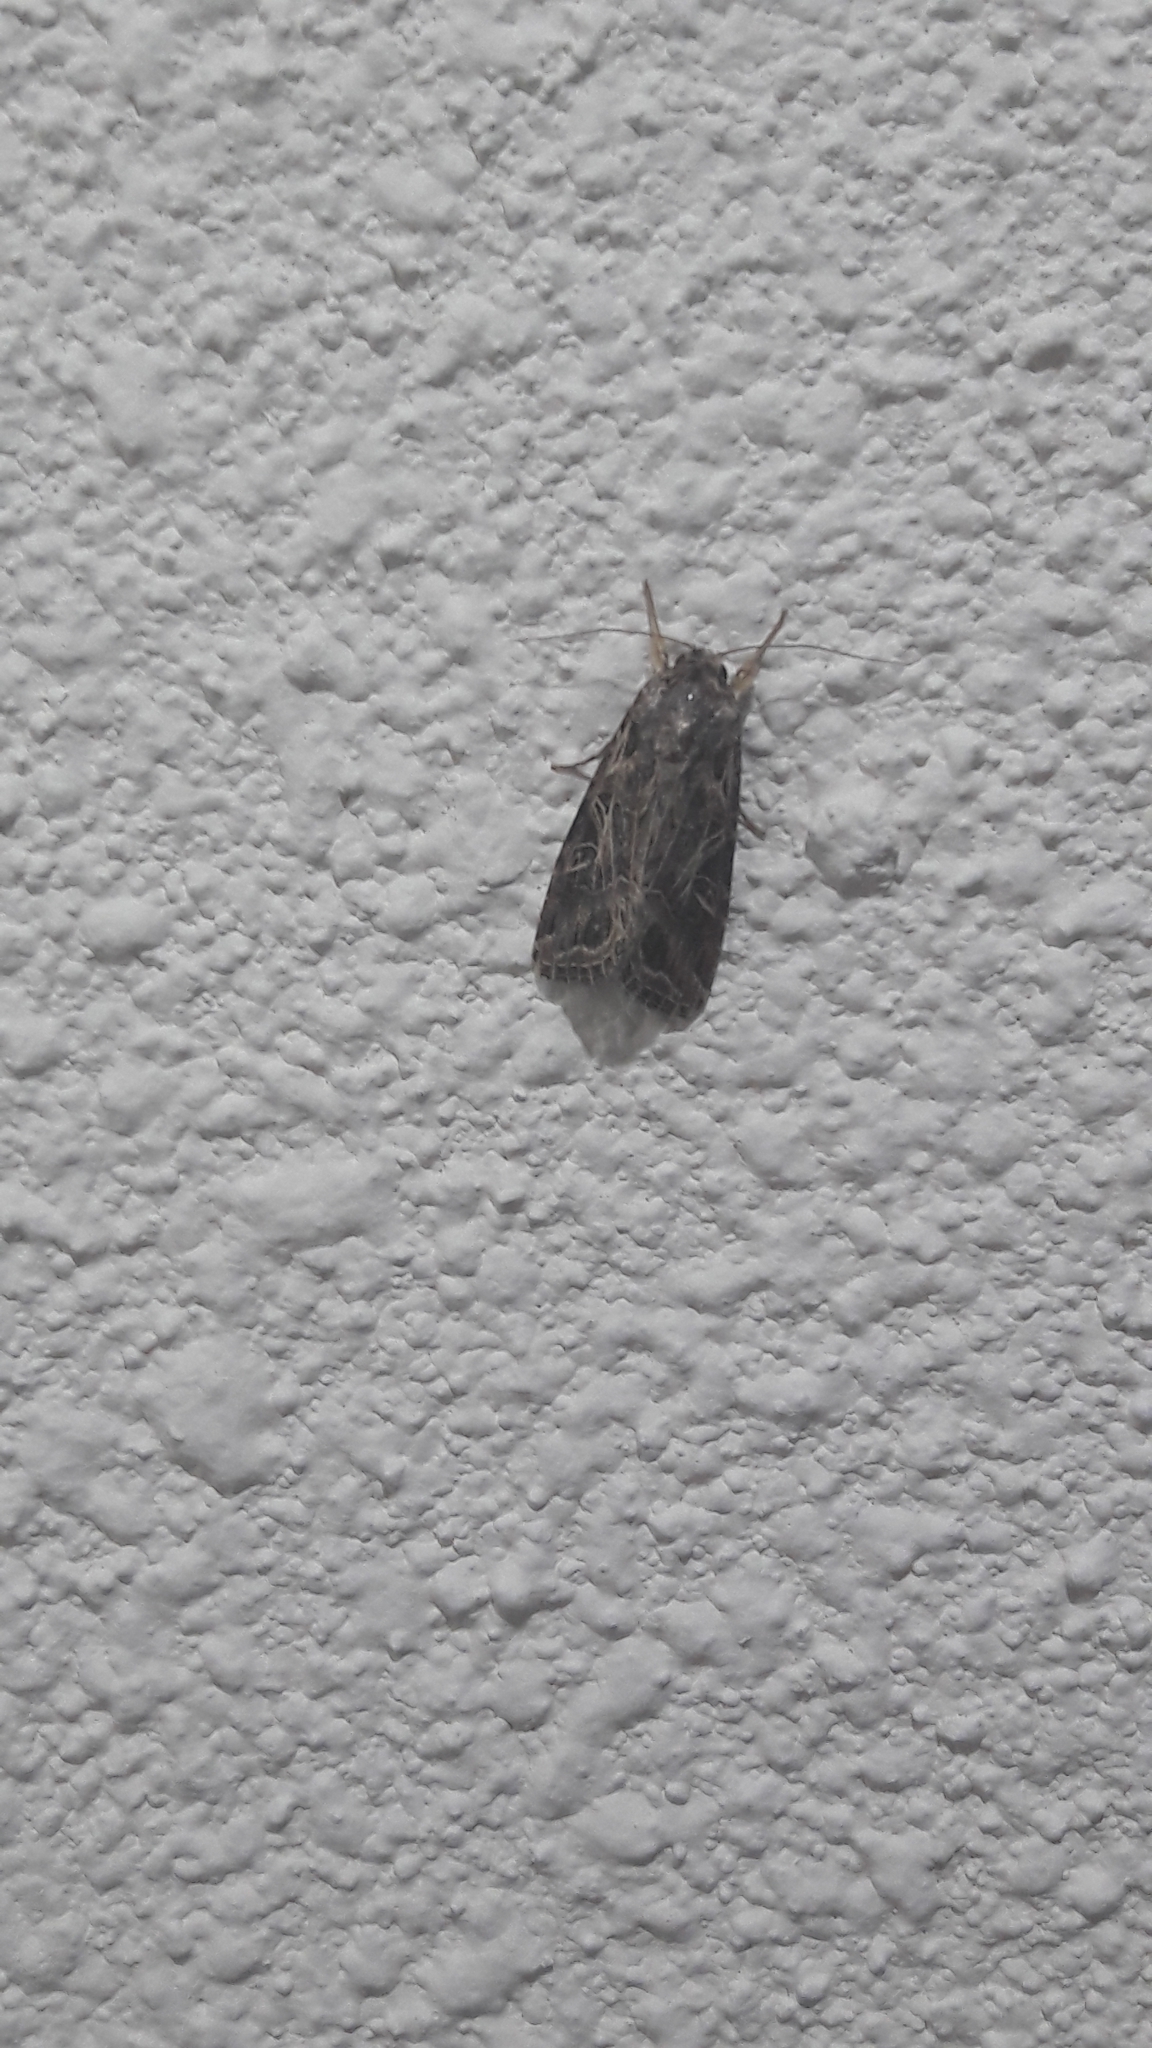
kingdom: Animalia
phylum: Arthropoda
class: Insecta
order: Lepidoptera
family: Noctuidae
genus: Spodoptera
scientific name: Spodoptera littoralis
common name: Egyptian cotton leafworm
